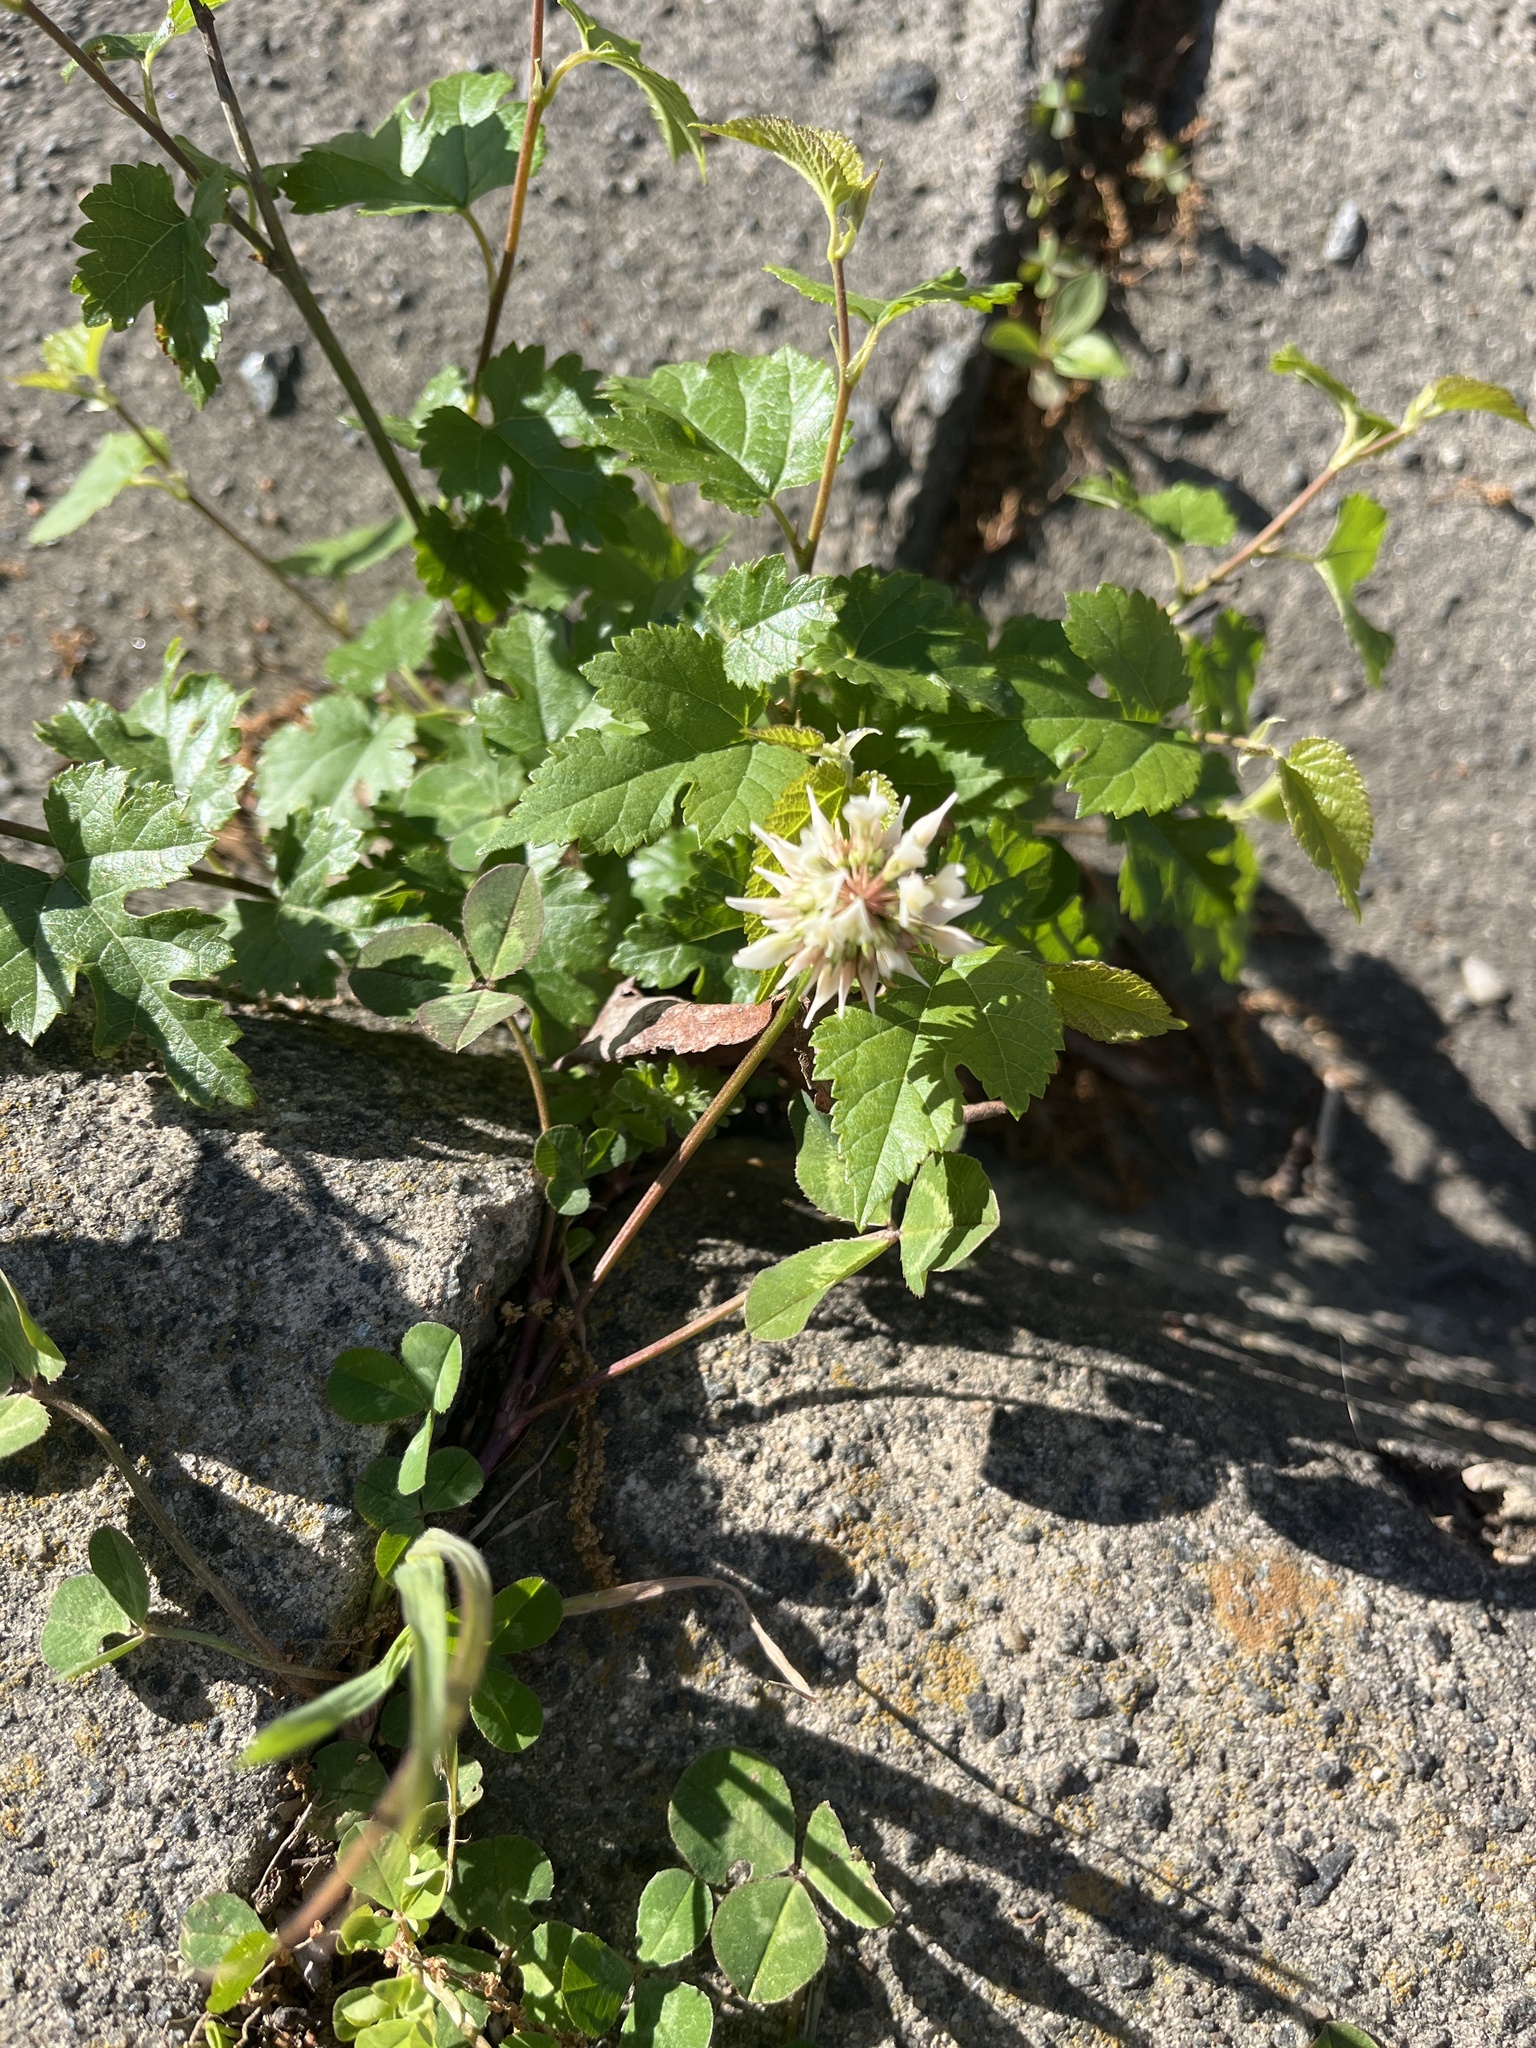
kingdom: Plantae
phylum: Tracheophyta
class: Magnoliopsida
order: Fabales
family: Fabaceae
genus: Trifolium
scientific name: Trifolium repens
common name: White clover
